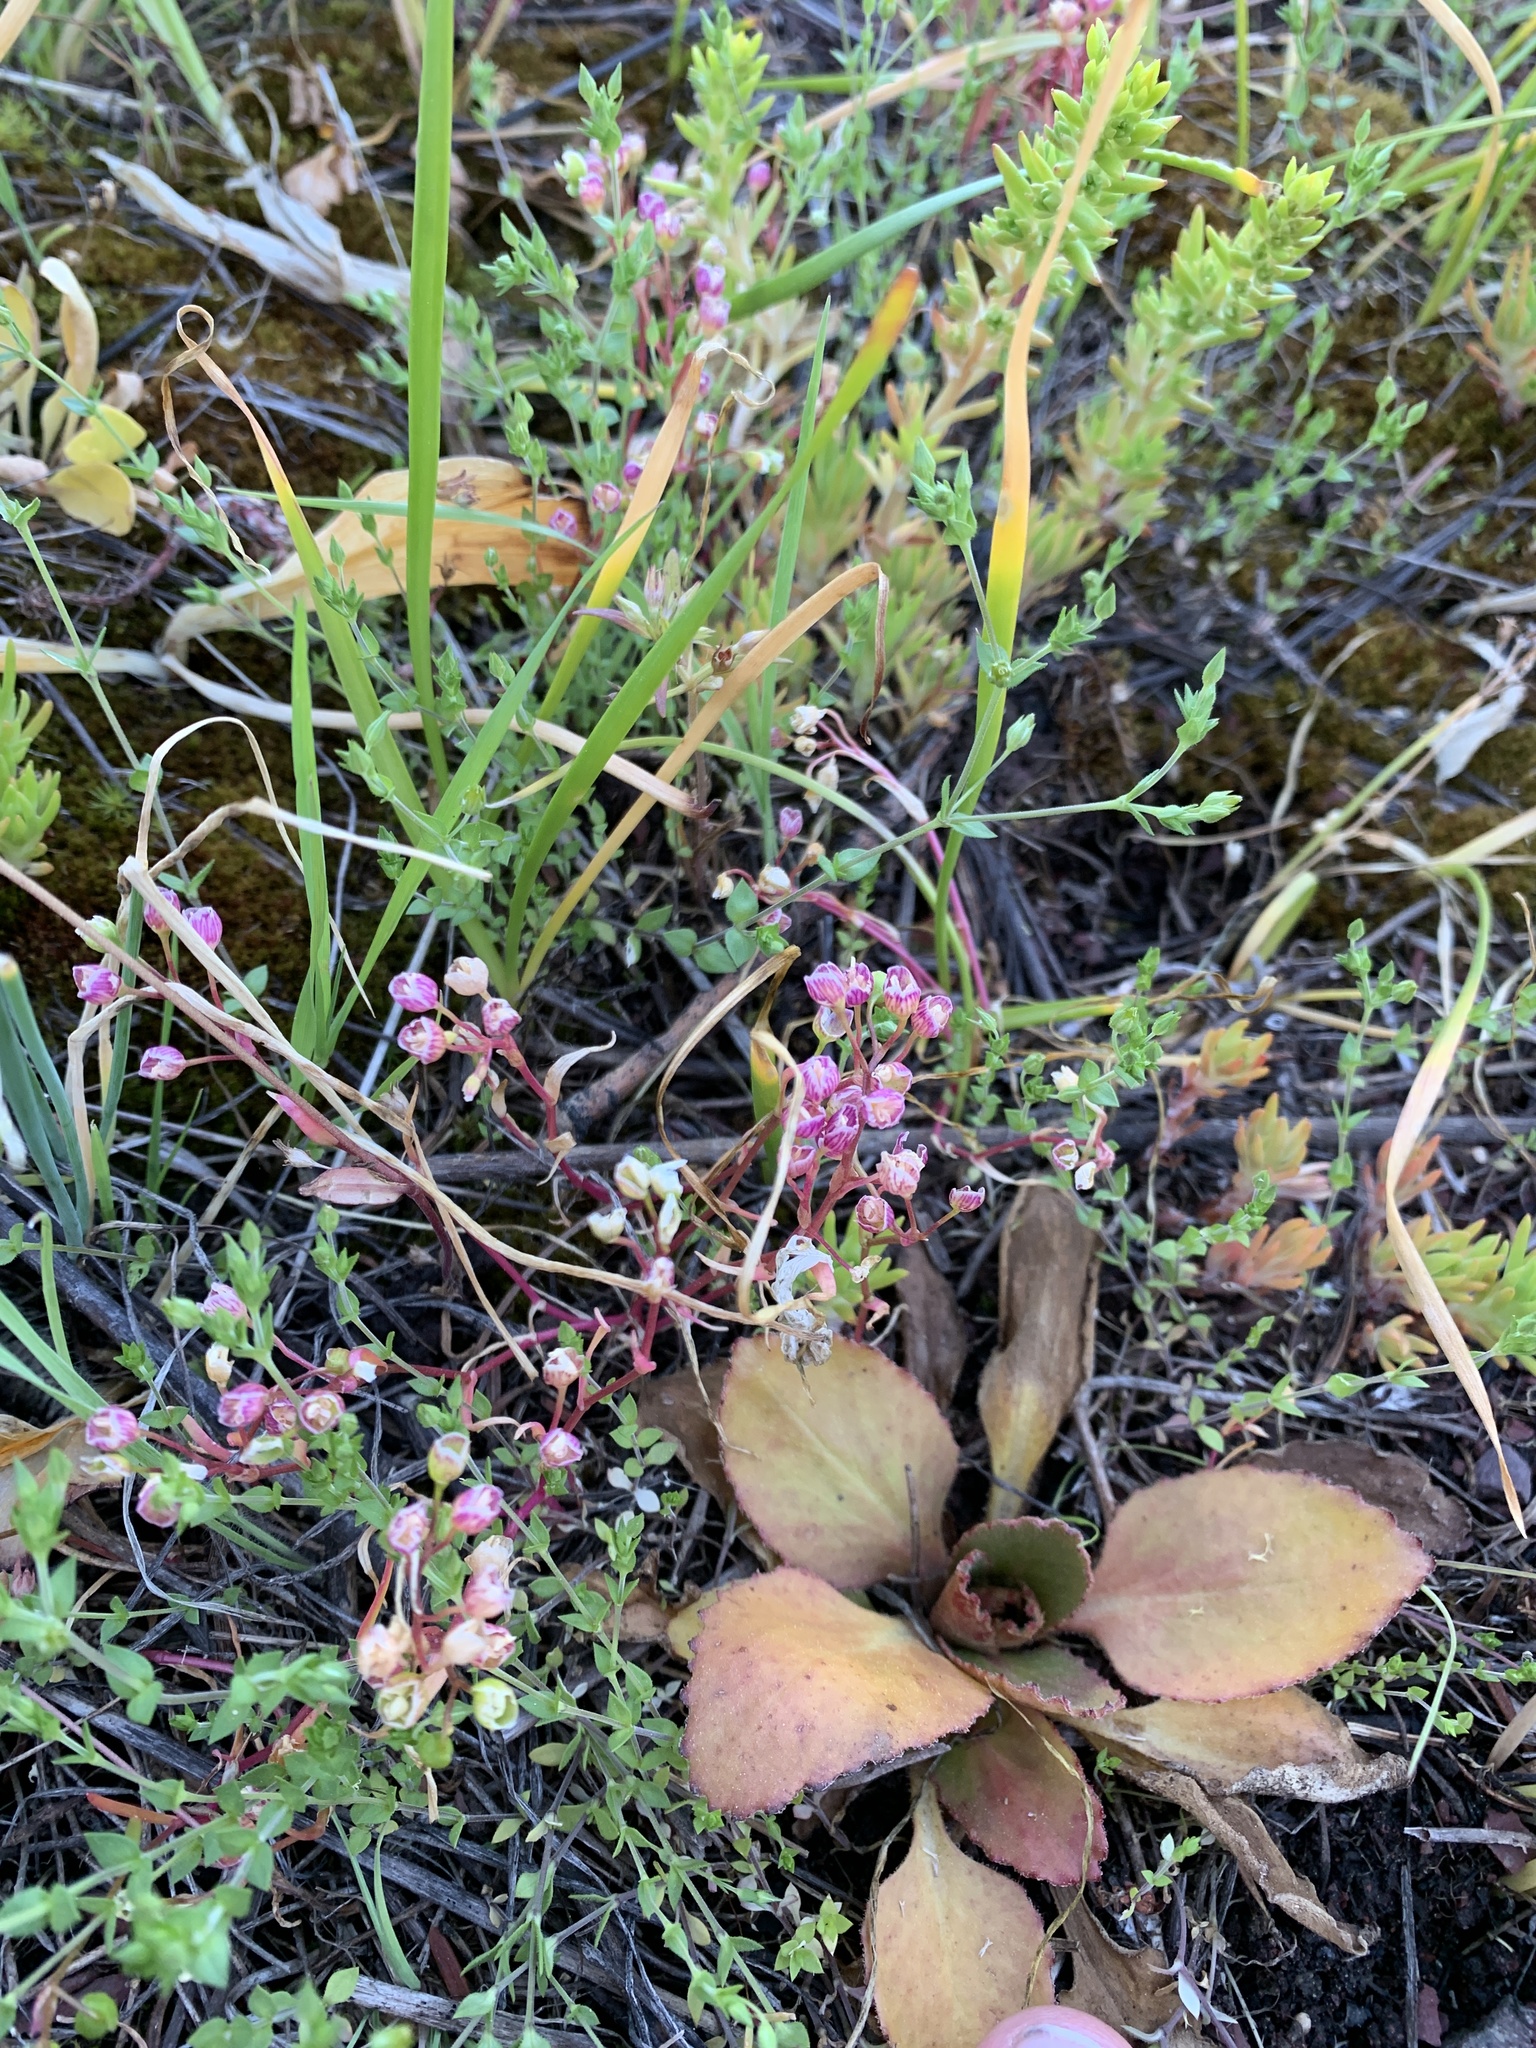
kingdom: Plantae
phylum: Tracheophyta
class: Magnoliopsida
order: Caryophyllales
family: Montiaceae
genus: Montia
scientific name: Montia linearis
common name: Narrow-leaf montia
